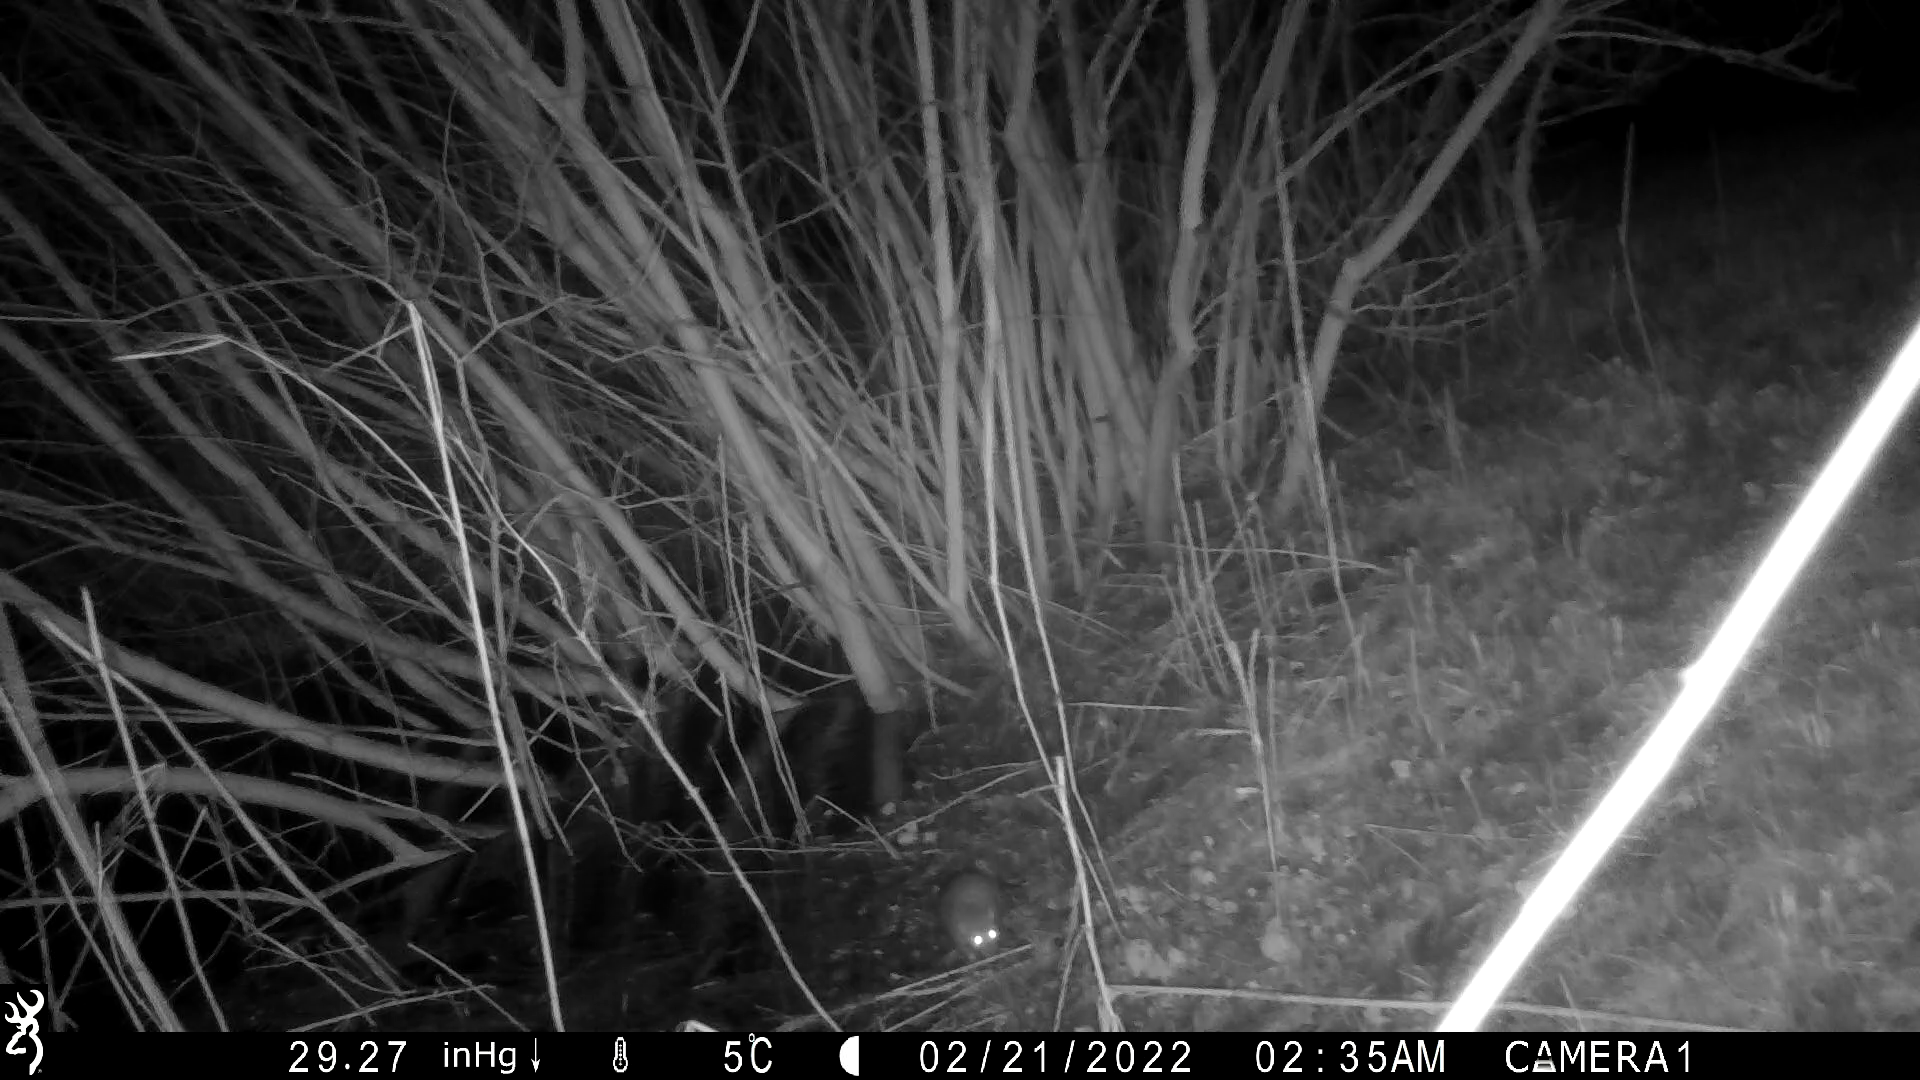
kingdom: Animalia
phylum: Chordata
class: Mammalia
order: Rodentia
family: Muridae
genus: Rattus
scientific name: Rattus norvegicus
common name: Brown rat
